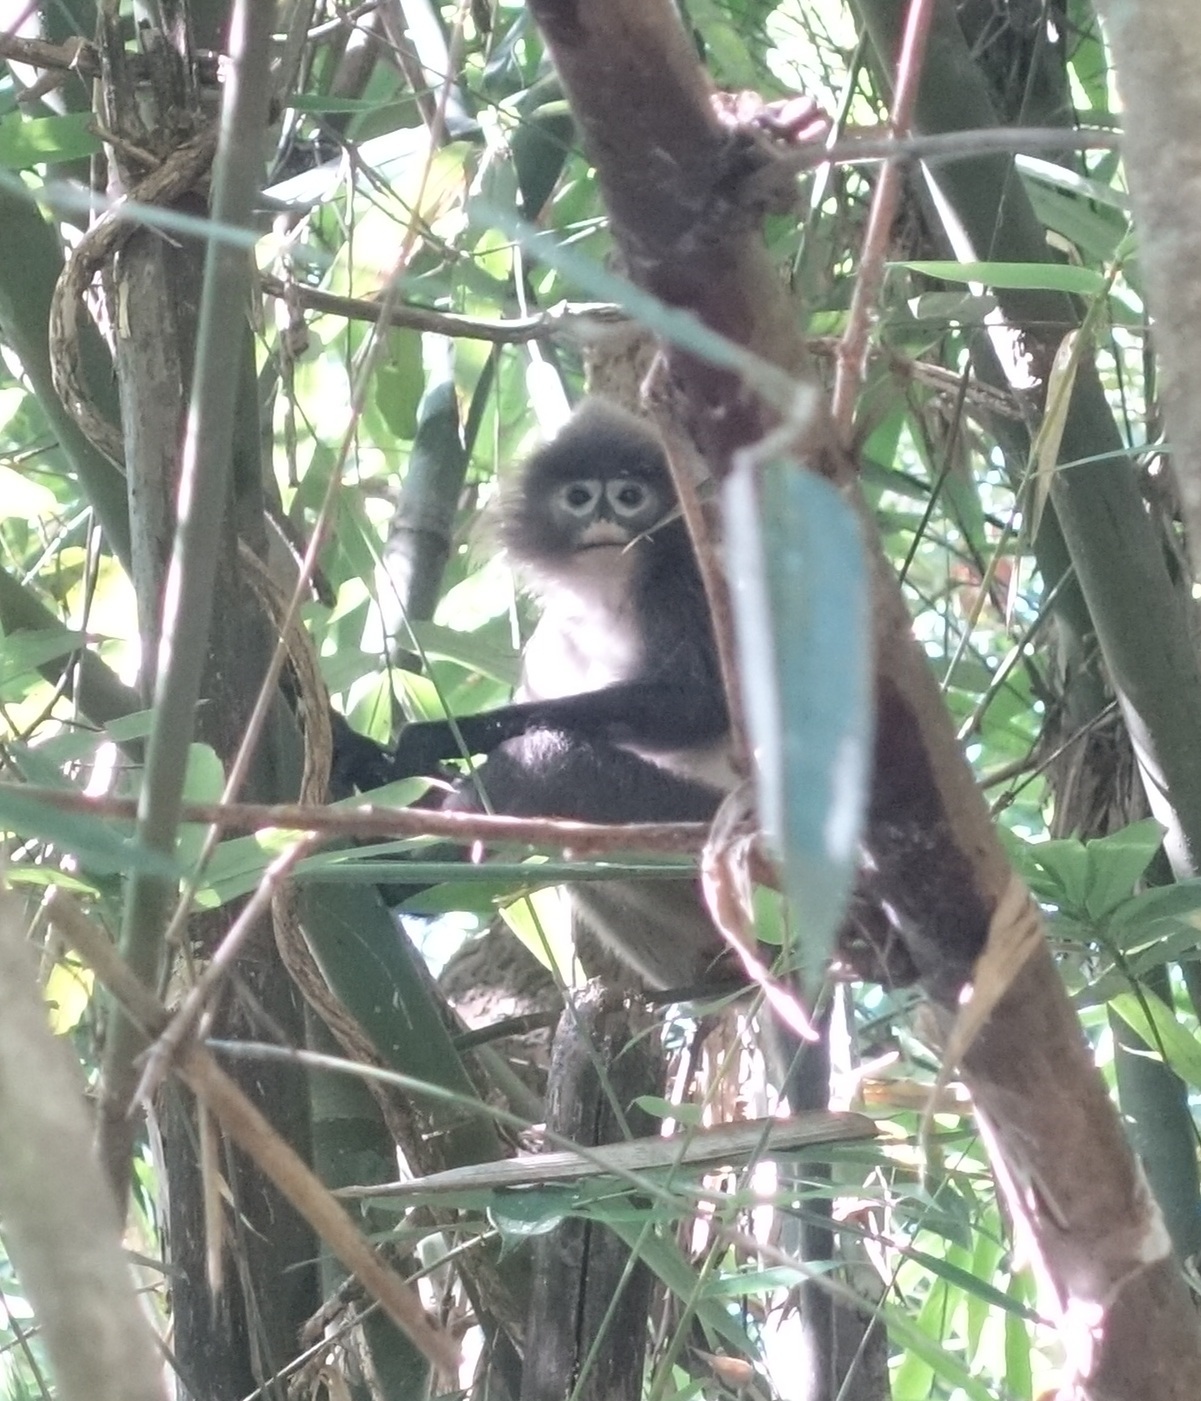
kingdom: Animalia
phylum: Chordata
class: Mammalia
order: Primates
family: Cercopithecidae
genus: Trachypithecus
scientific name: Trachypithecus phayrei
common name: Phayre's leaf monkey
